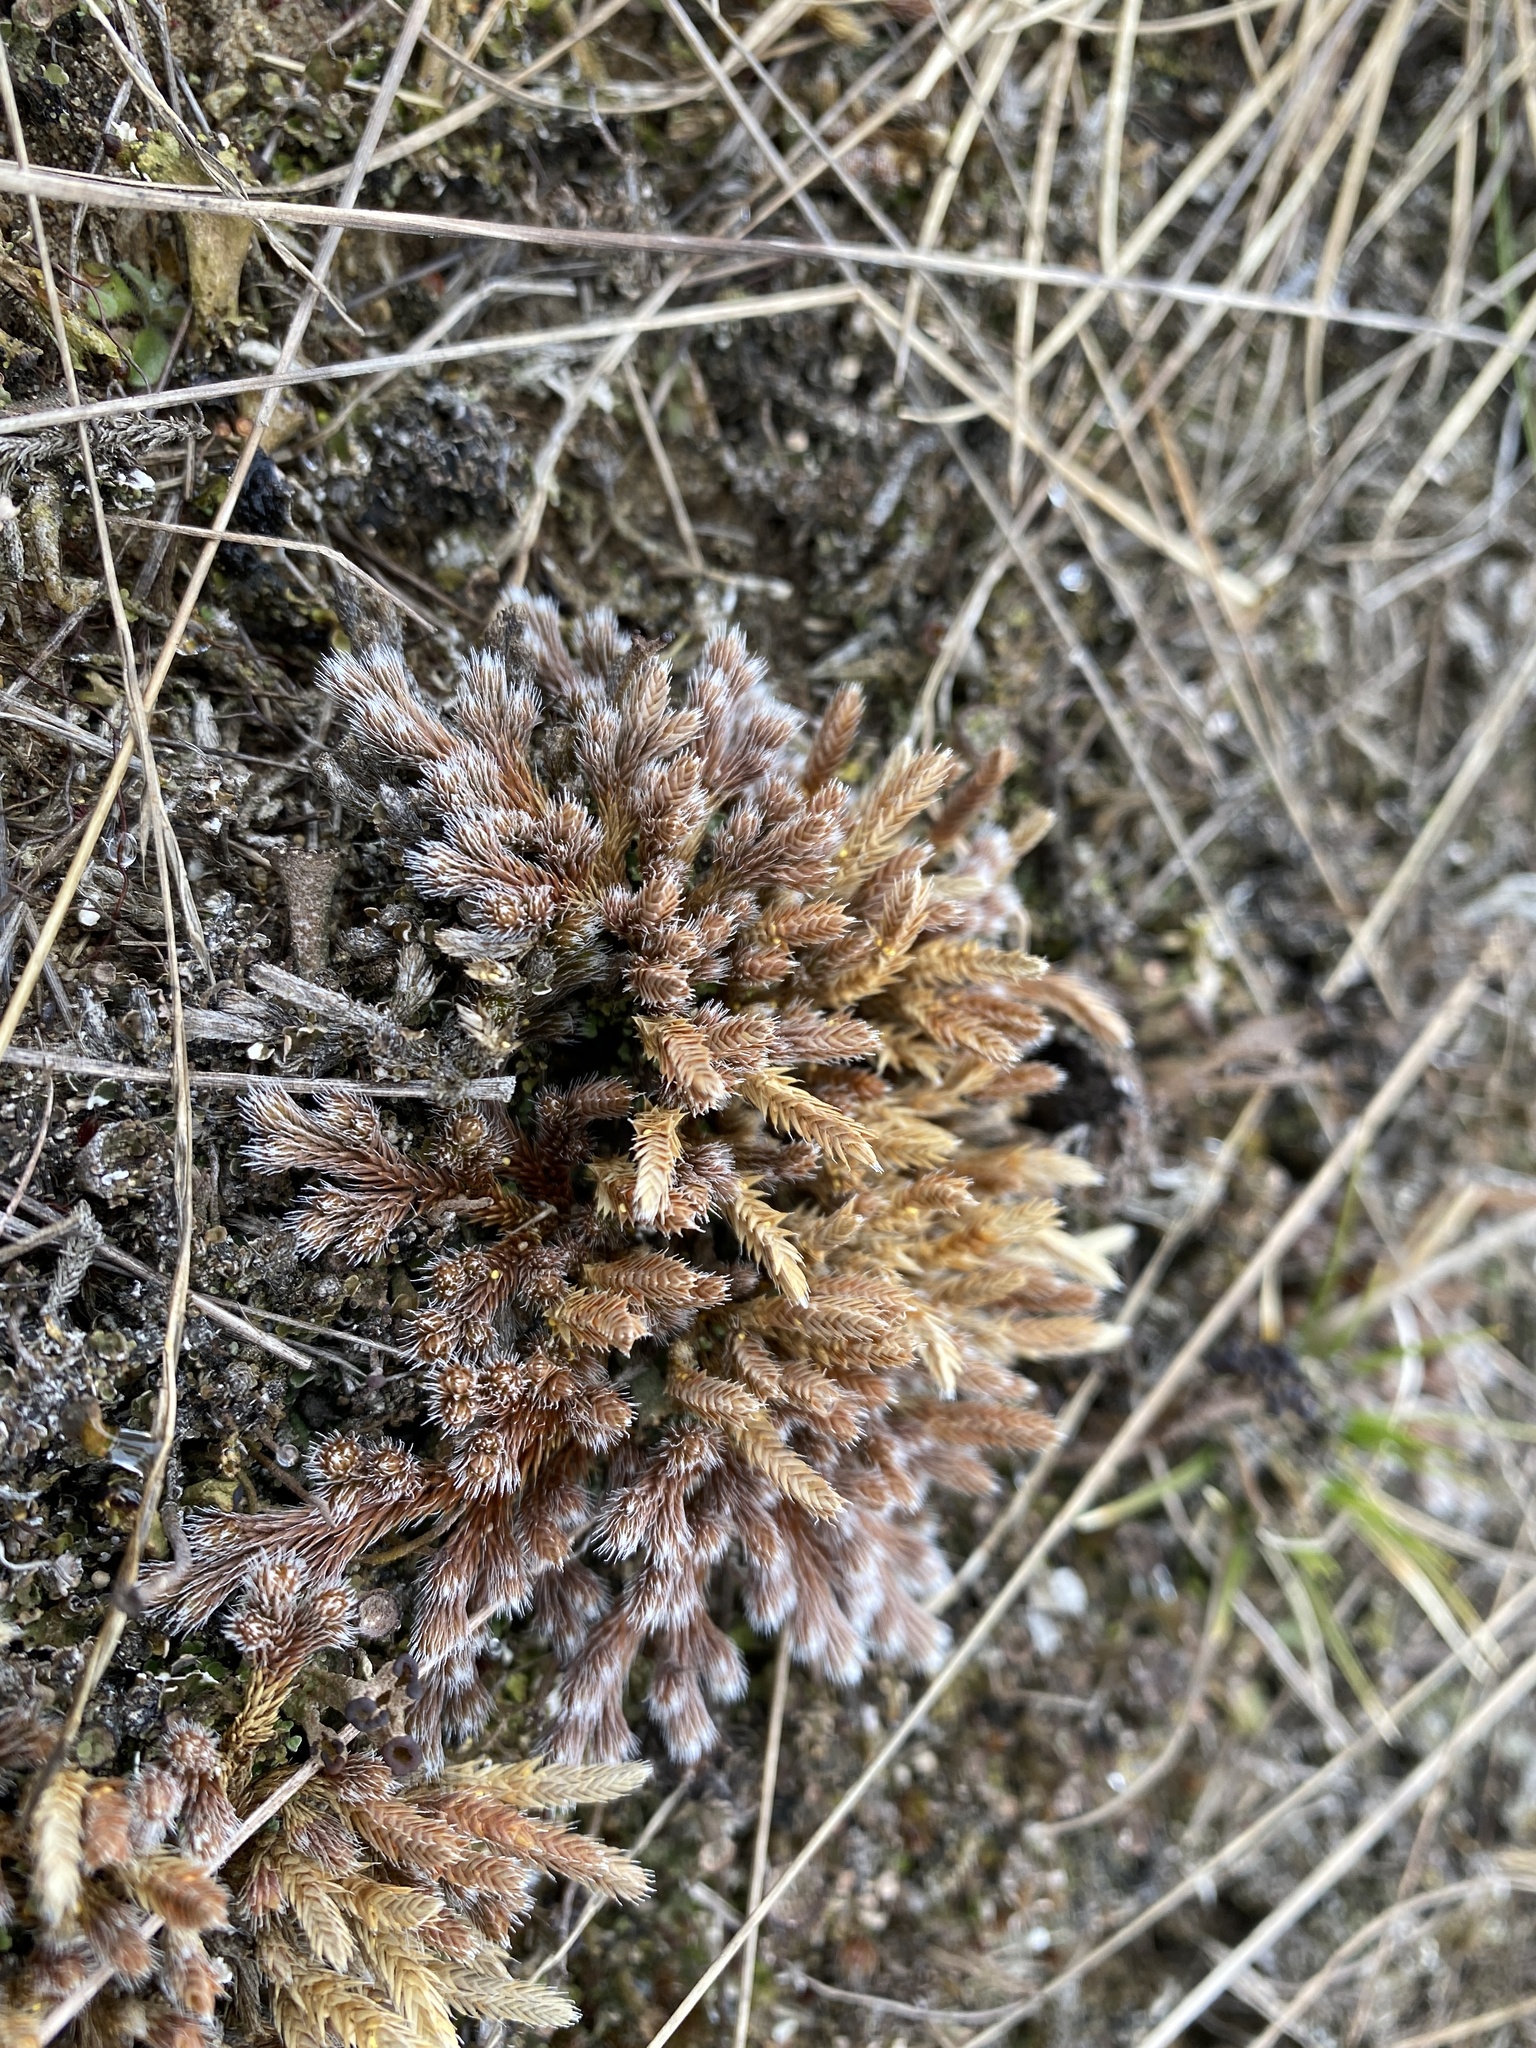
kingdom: Plantae
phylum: Tracheophyta
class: Lycopodiopsida
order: Selaginellales
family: Selaginellaceae
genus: Selaginella
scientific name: Selaginella rupestris
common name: Dwarf spikemoss
